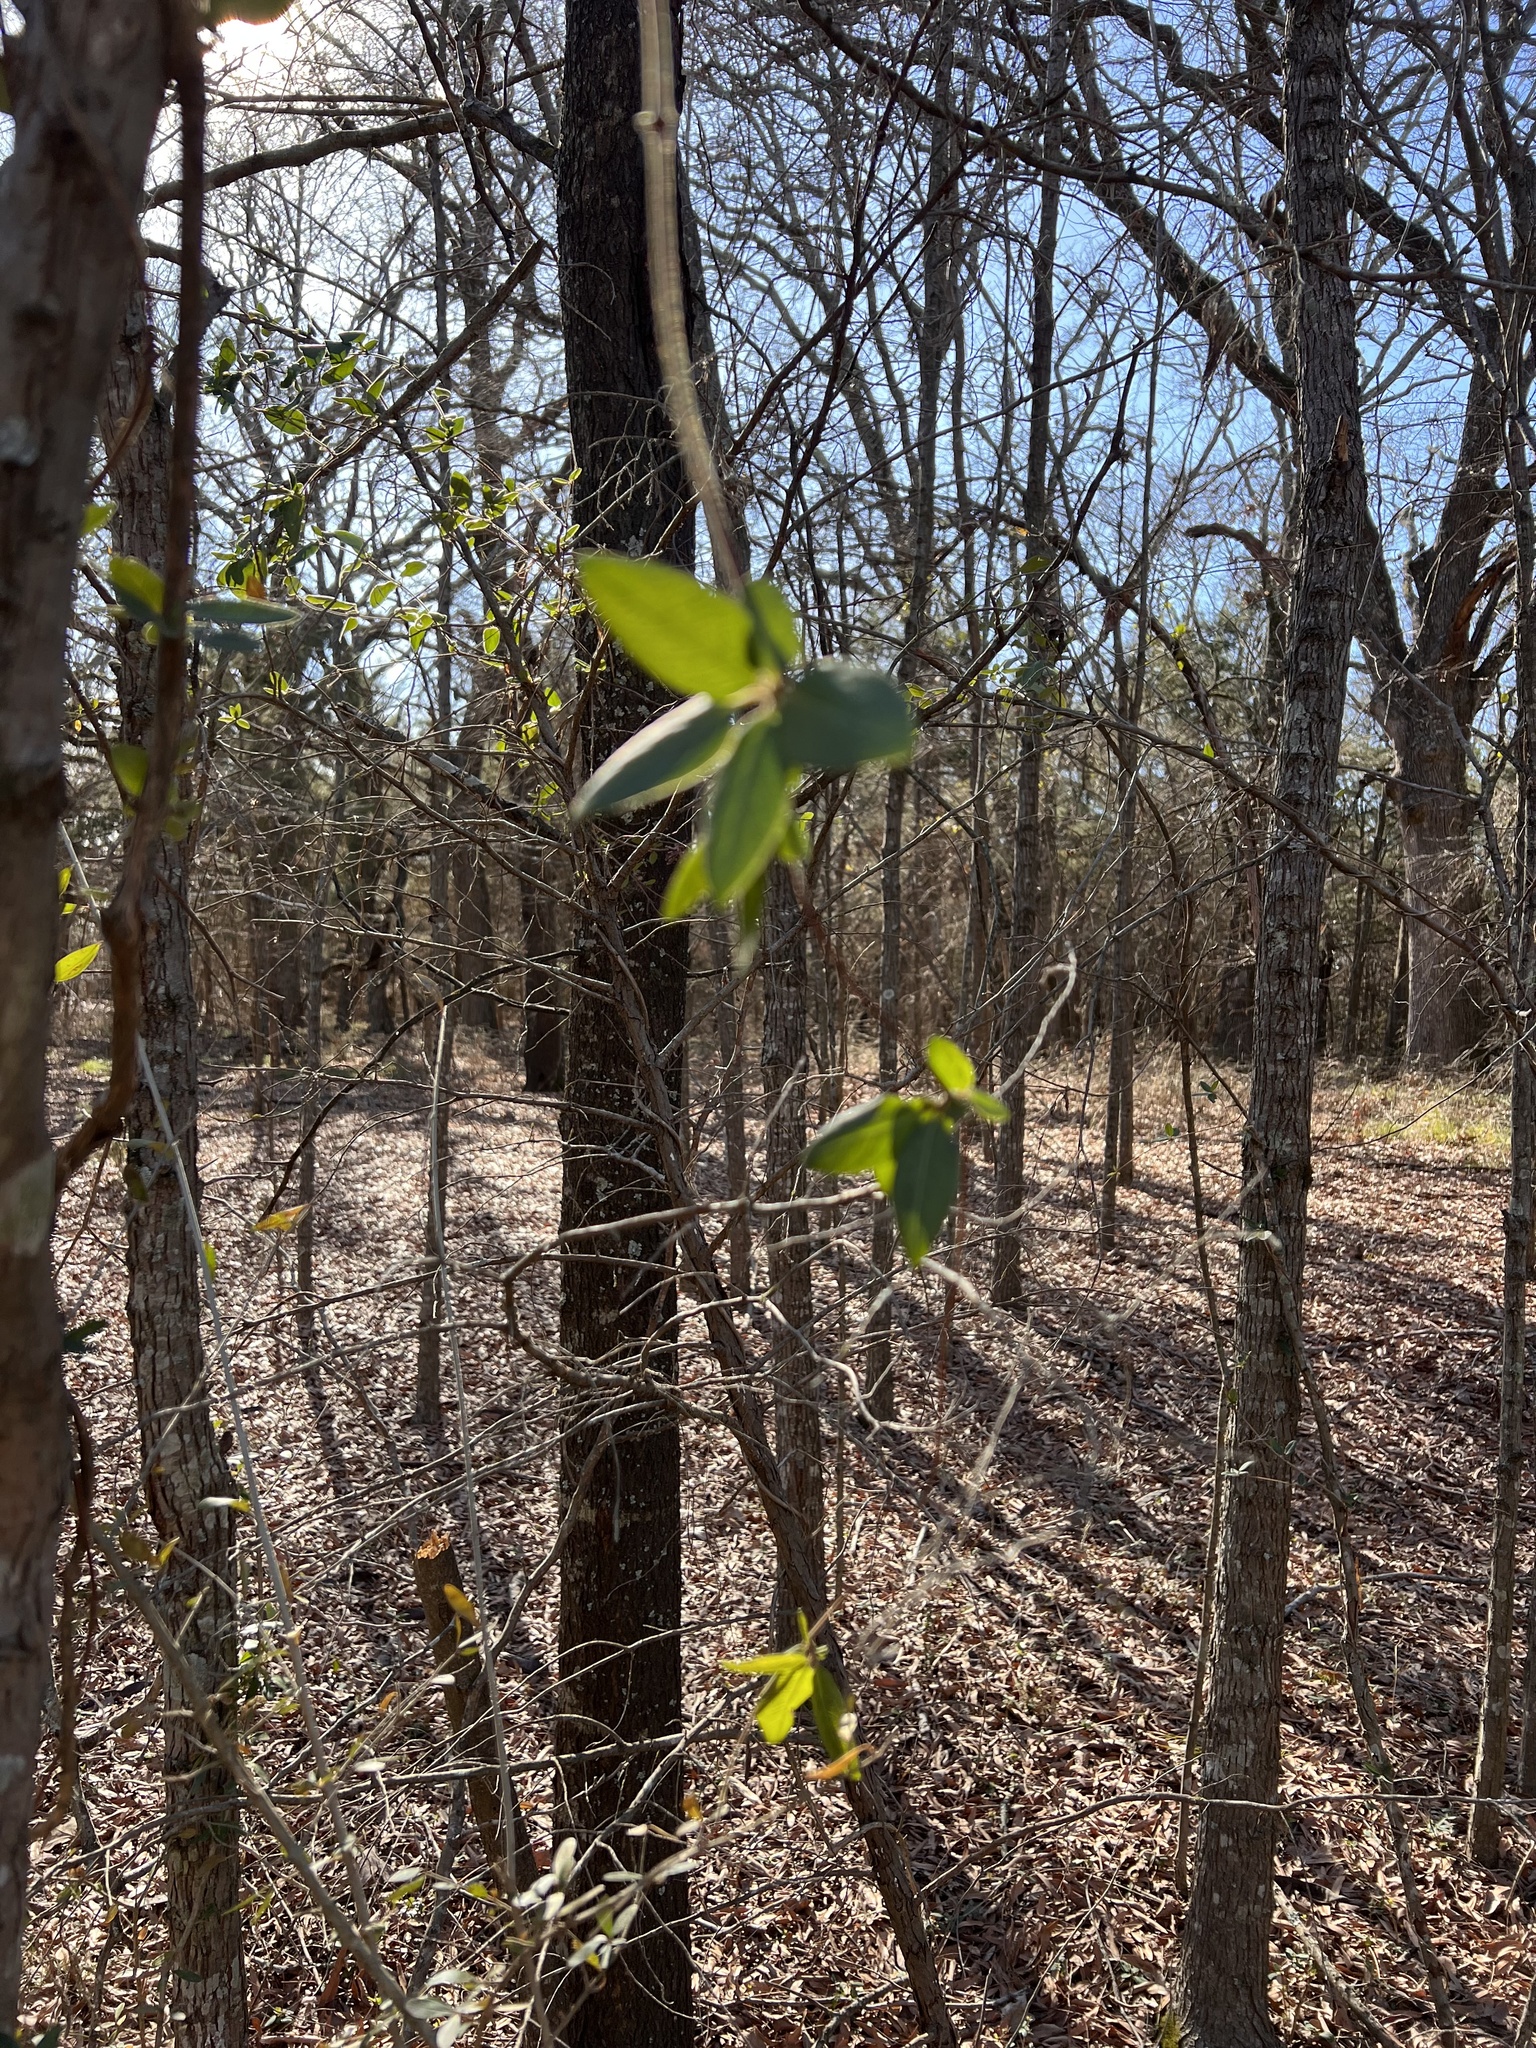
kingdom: Plantae
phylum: Tracheophyta
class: Magnoliopsida
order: Dipsacales
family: Caprifoliaceae
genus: Lonicera
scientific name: Lonicera japonica
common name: Japanese honeysuckle
